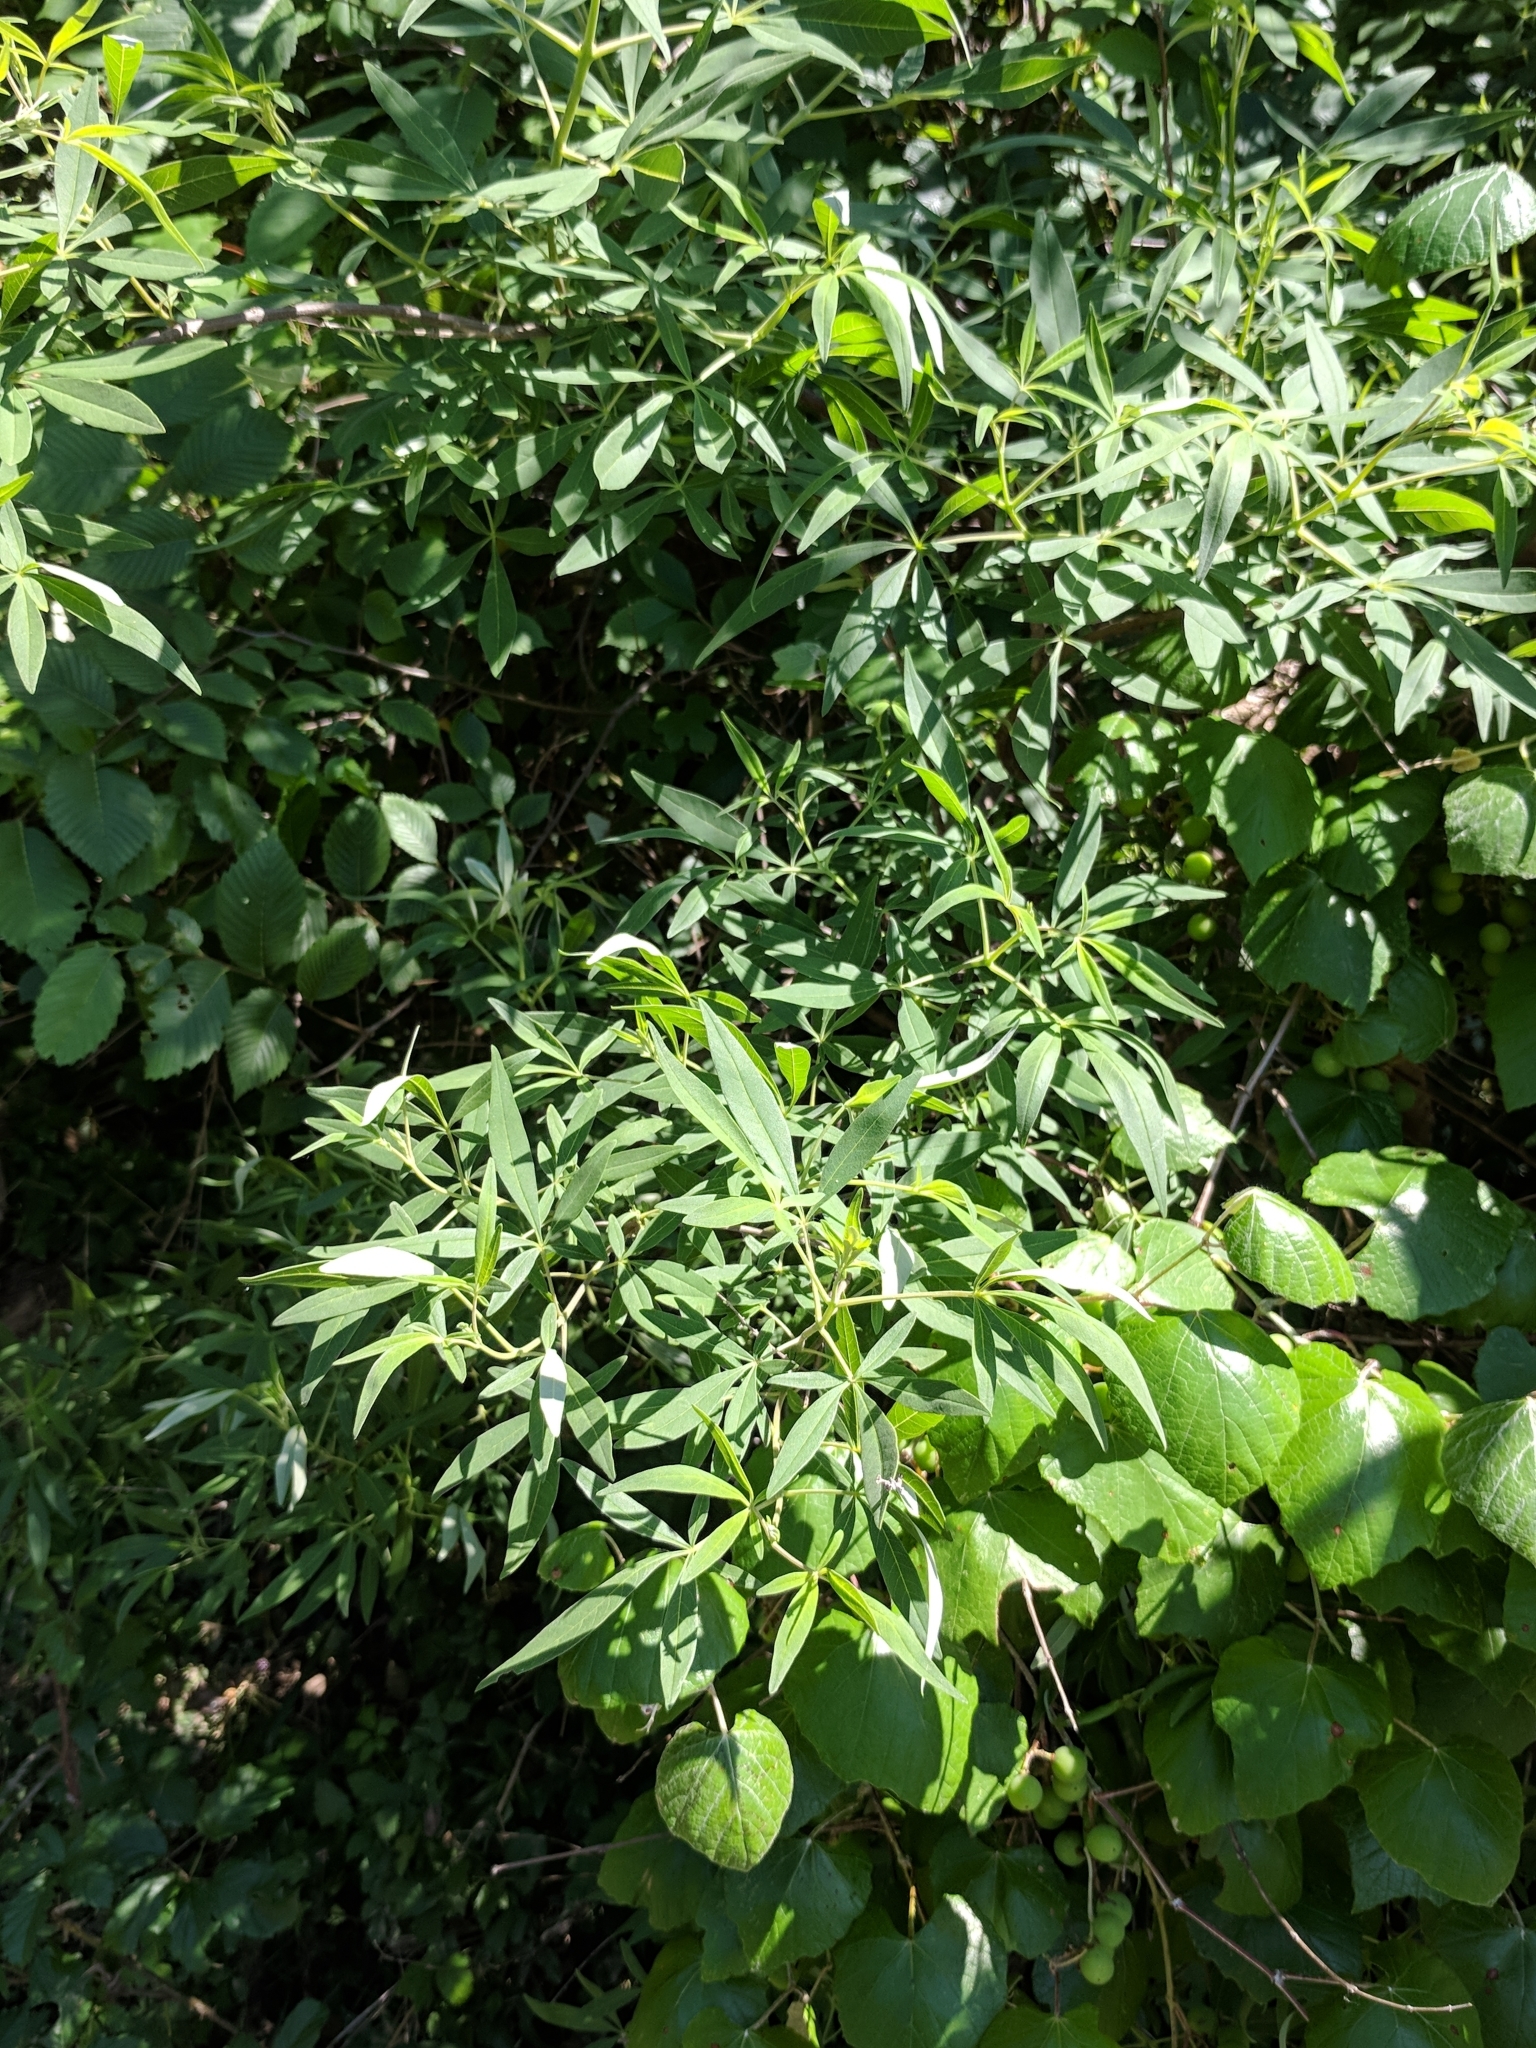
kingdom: Plantae
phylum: Tracheophyta
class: Magnoliopsida
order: Lamiales
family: Lamiaceae
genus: Vitex
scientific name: Vitex agnus-castus
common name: Chasteberry
